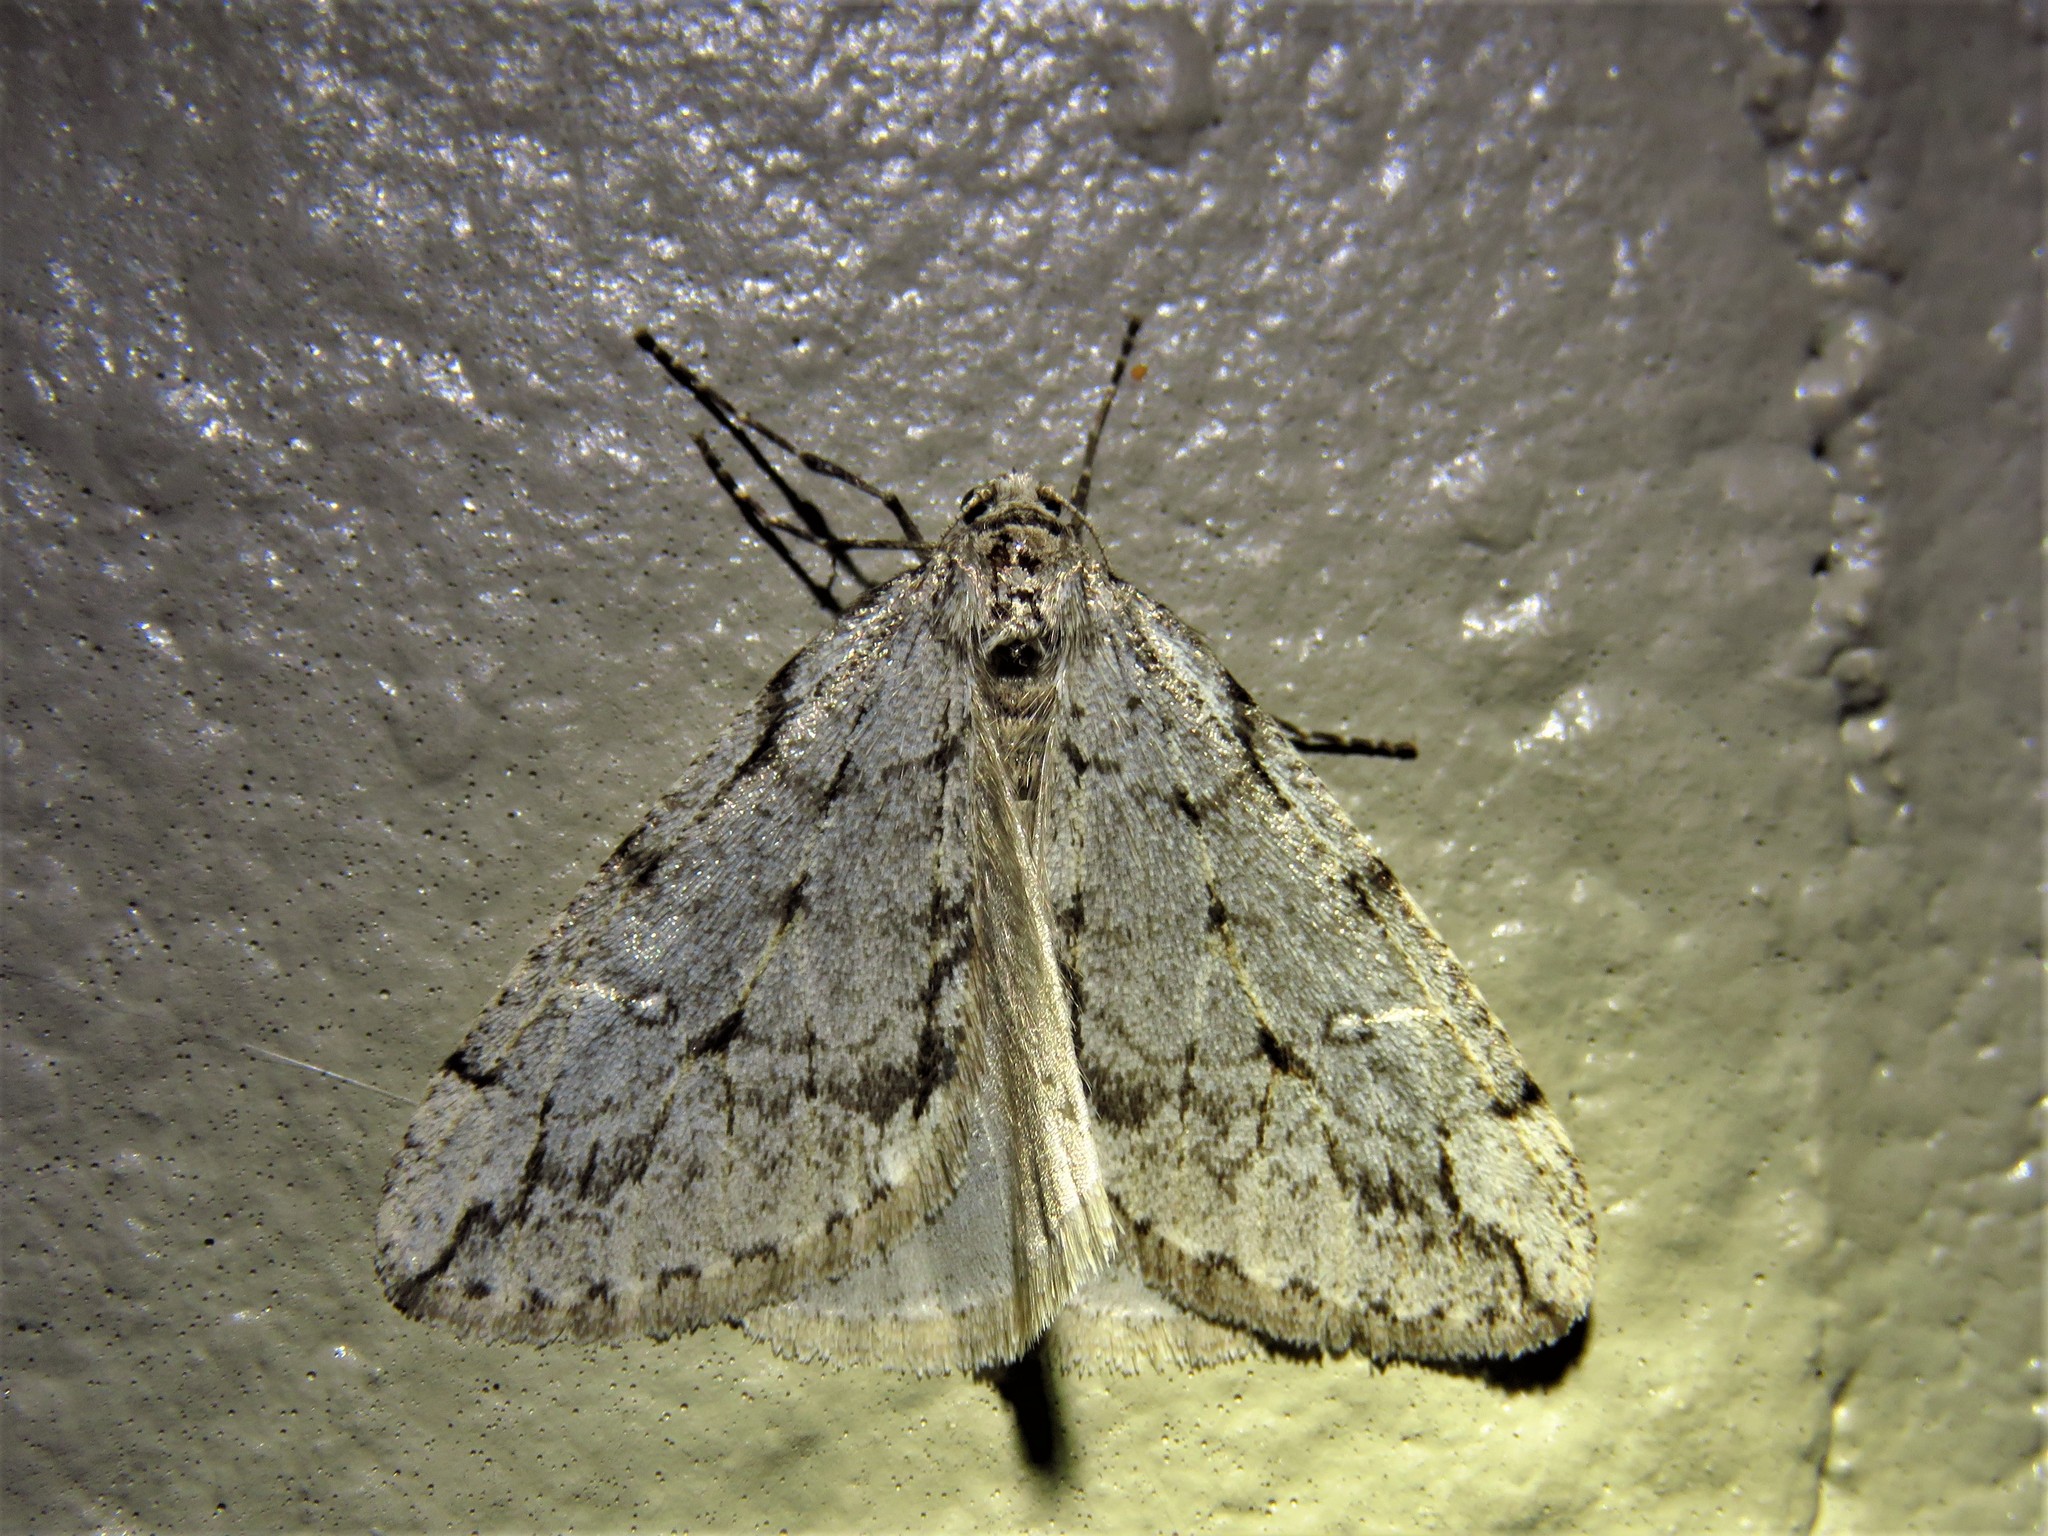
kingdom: Animalia
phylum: Arthropoda
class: Insecta
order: Lepidoptera
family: Geometridae
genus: Paleacrita
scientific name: Paleacrita merriccata
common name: White-spotted canker worm
